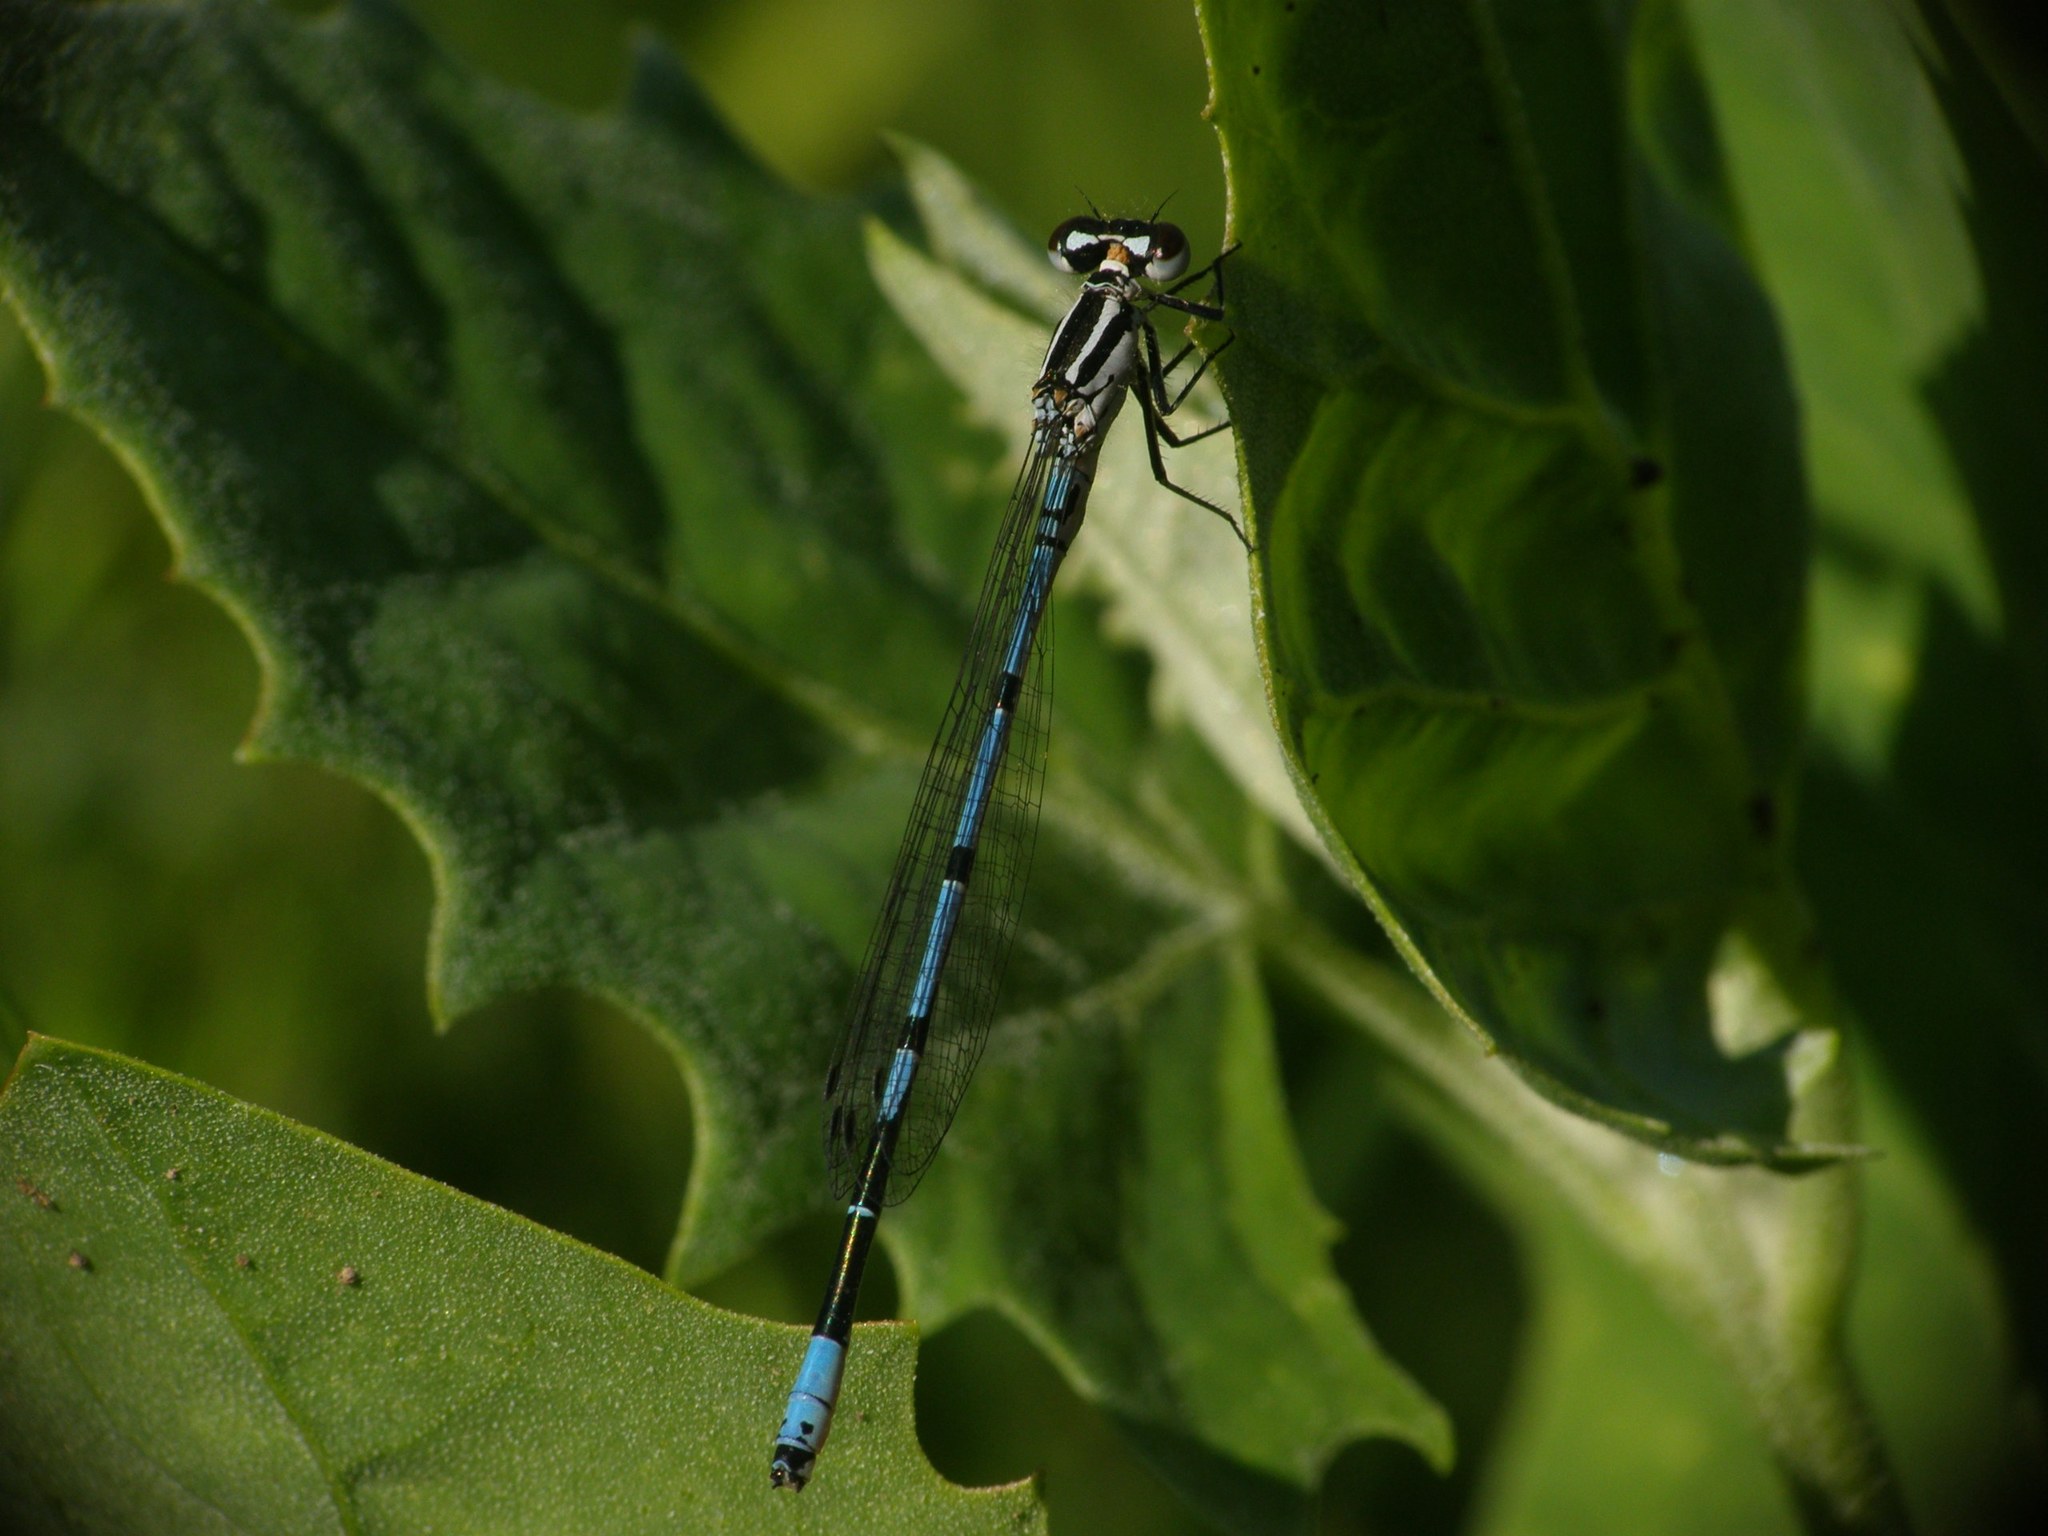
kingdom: Animalia
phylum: Arthropoda
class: Insecta
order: Odonata
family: Coenagrionidae
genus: Coenagrion
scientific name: Coenagrion puella
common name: Azure damselfly
